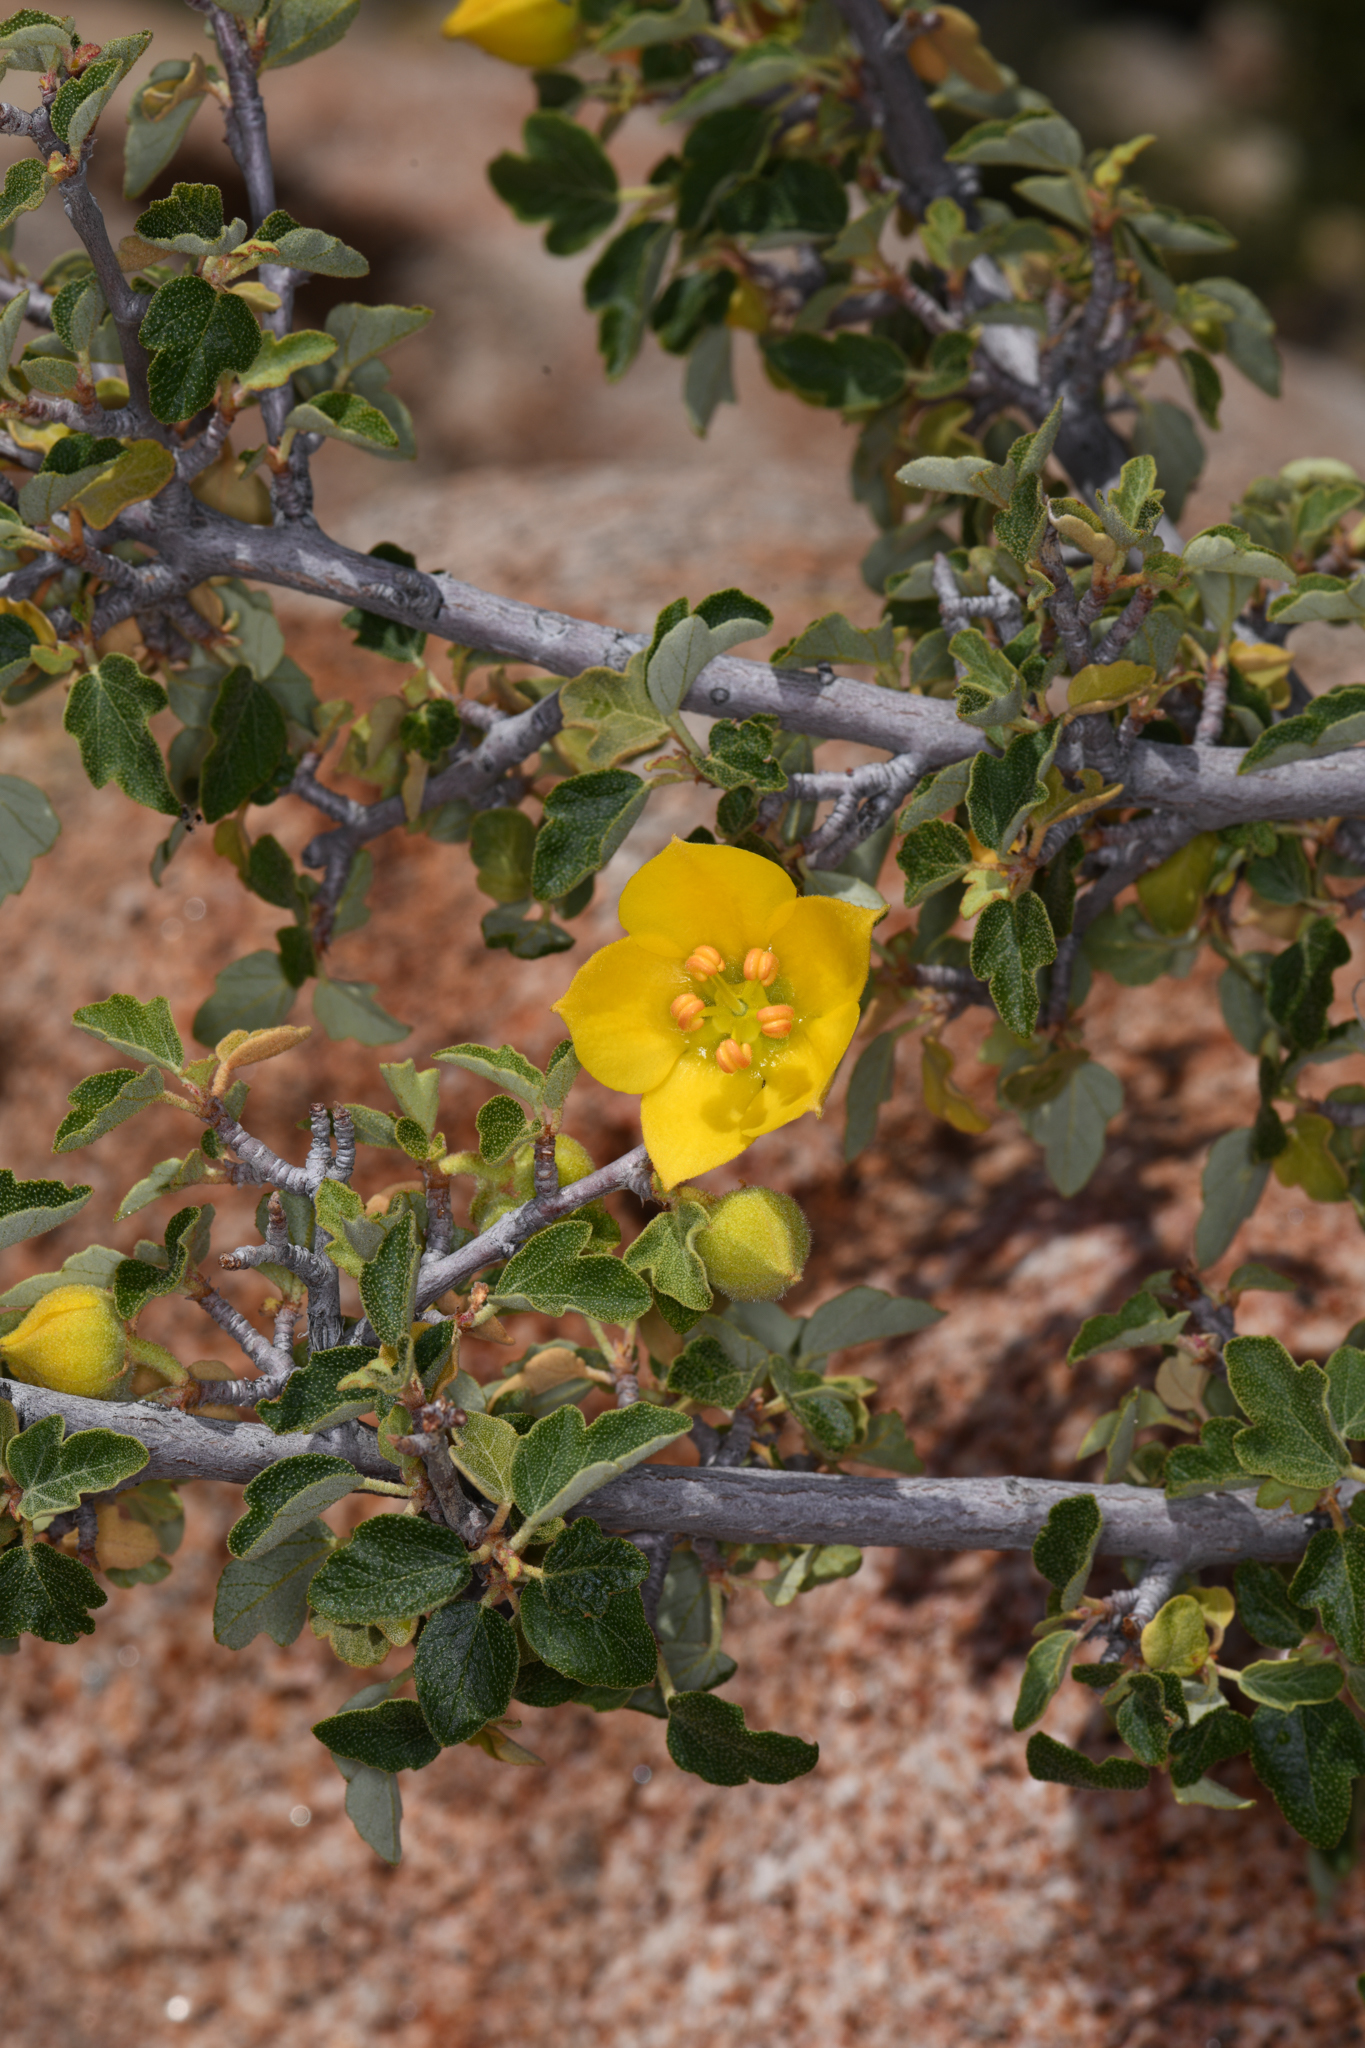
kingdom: Plantae
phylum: Tracheophyta
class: Magnoliopsida
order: Malvales
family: Malvaceae
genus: Fremontodendron
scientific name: Fremontodendron californicum
